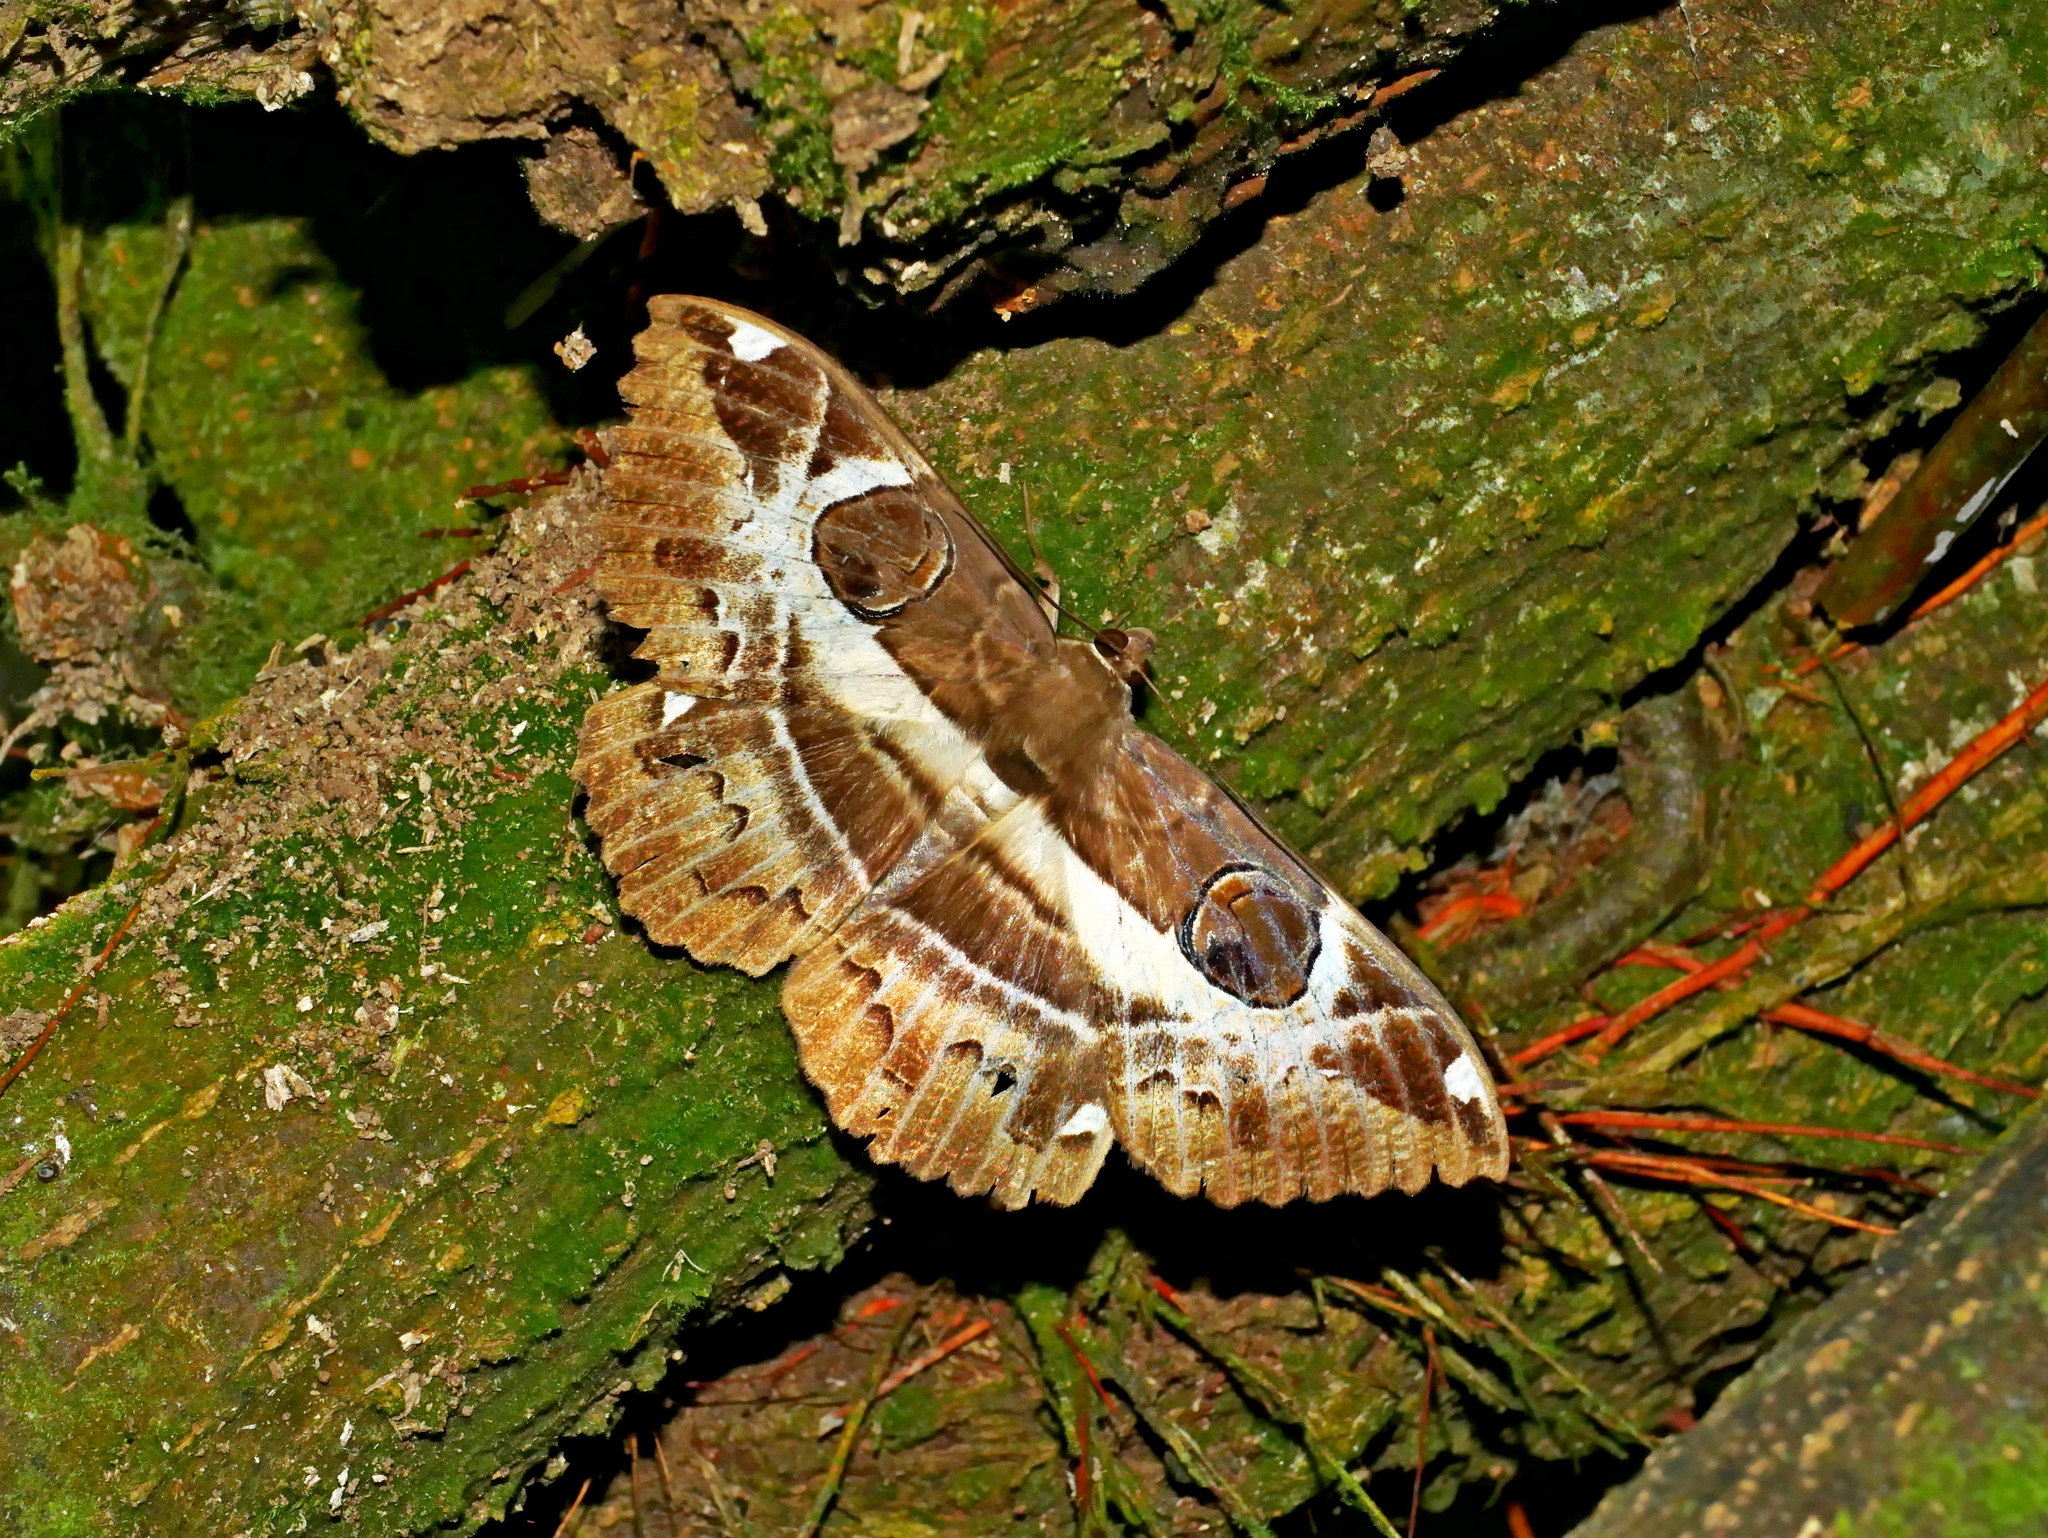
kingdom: Animalia
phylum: Arthropoda
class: Insecta
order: Lepidoptera
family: Erebidae
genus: Erebus
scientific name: Erebus ephesperis
